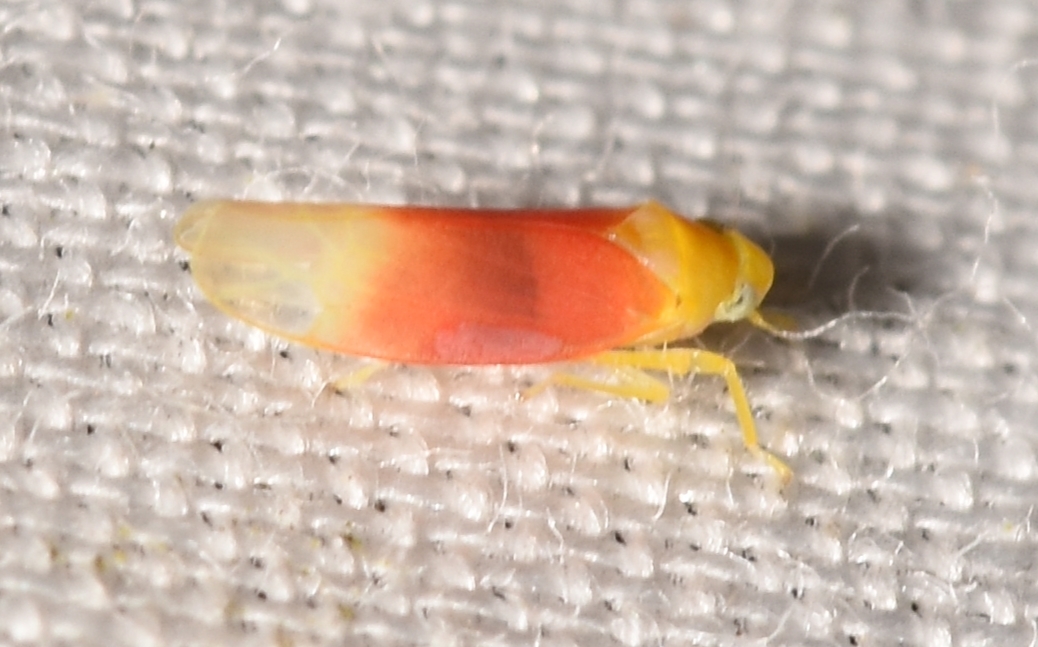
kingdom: Animalia
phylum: Arthropoda
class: Insecta
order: Hemiptera
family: Cicadellidae
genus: Ossiannilssonola
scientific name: Ossiannilssonola tunicarubra
